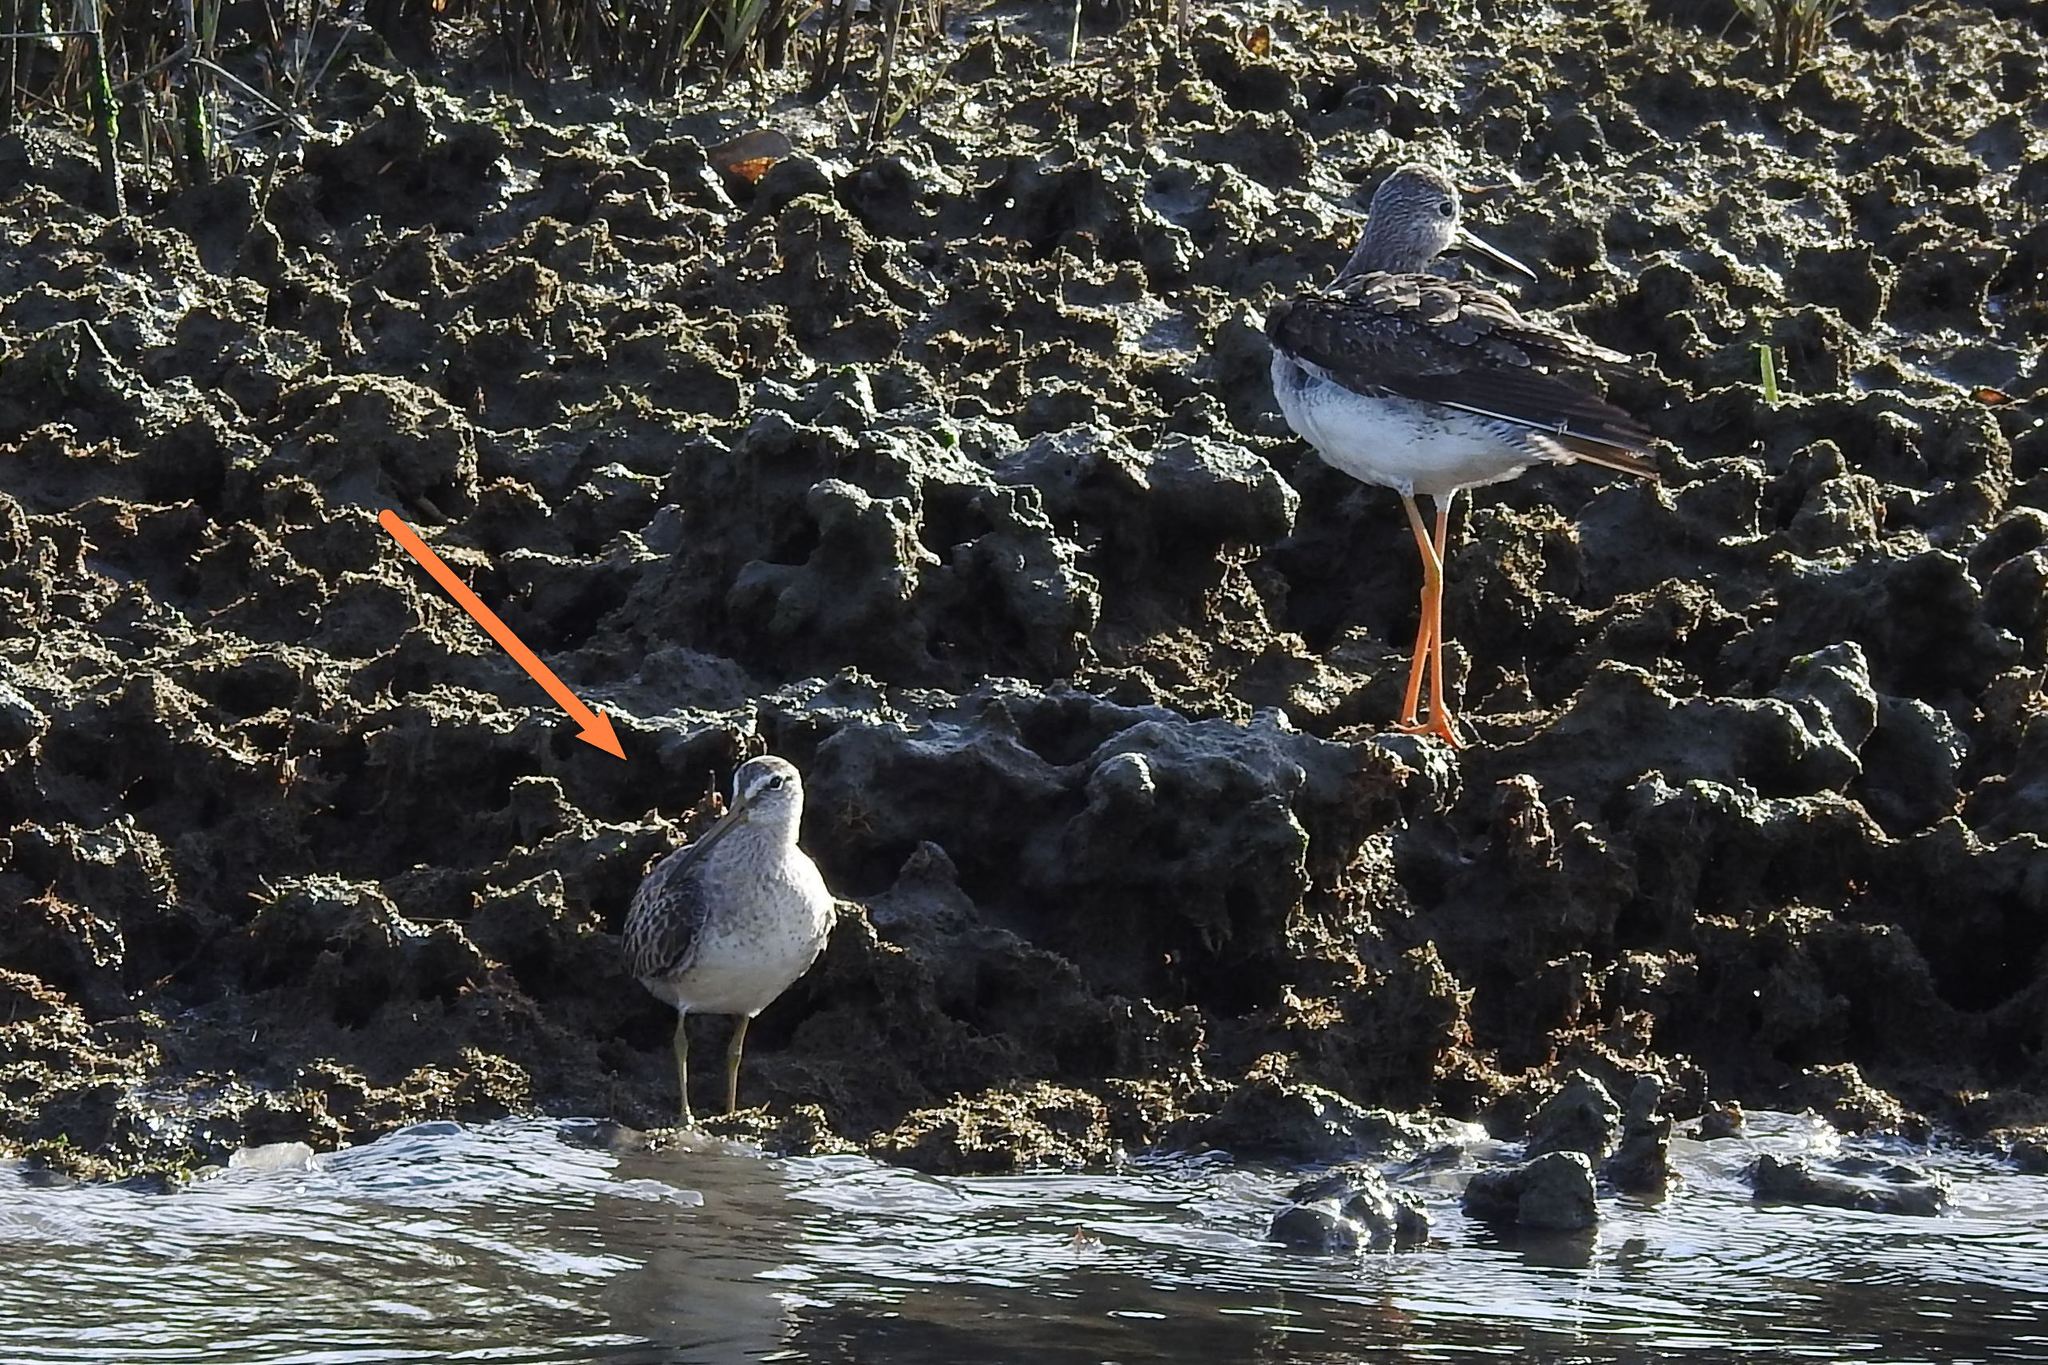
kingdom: Animalia
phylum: Chordata
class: Aves
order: Charadriiformes
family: Scolopacidae
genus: Limnodromus
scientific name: Limnodromus griseus
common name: Short-billed dowitcher
